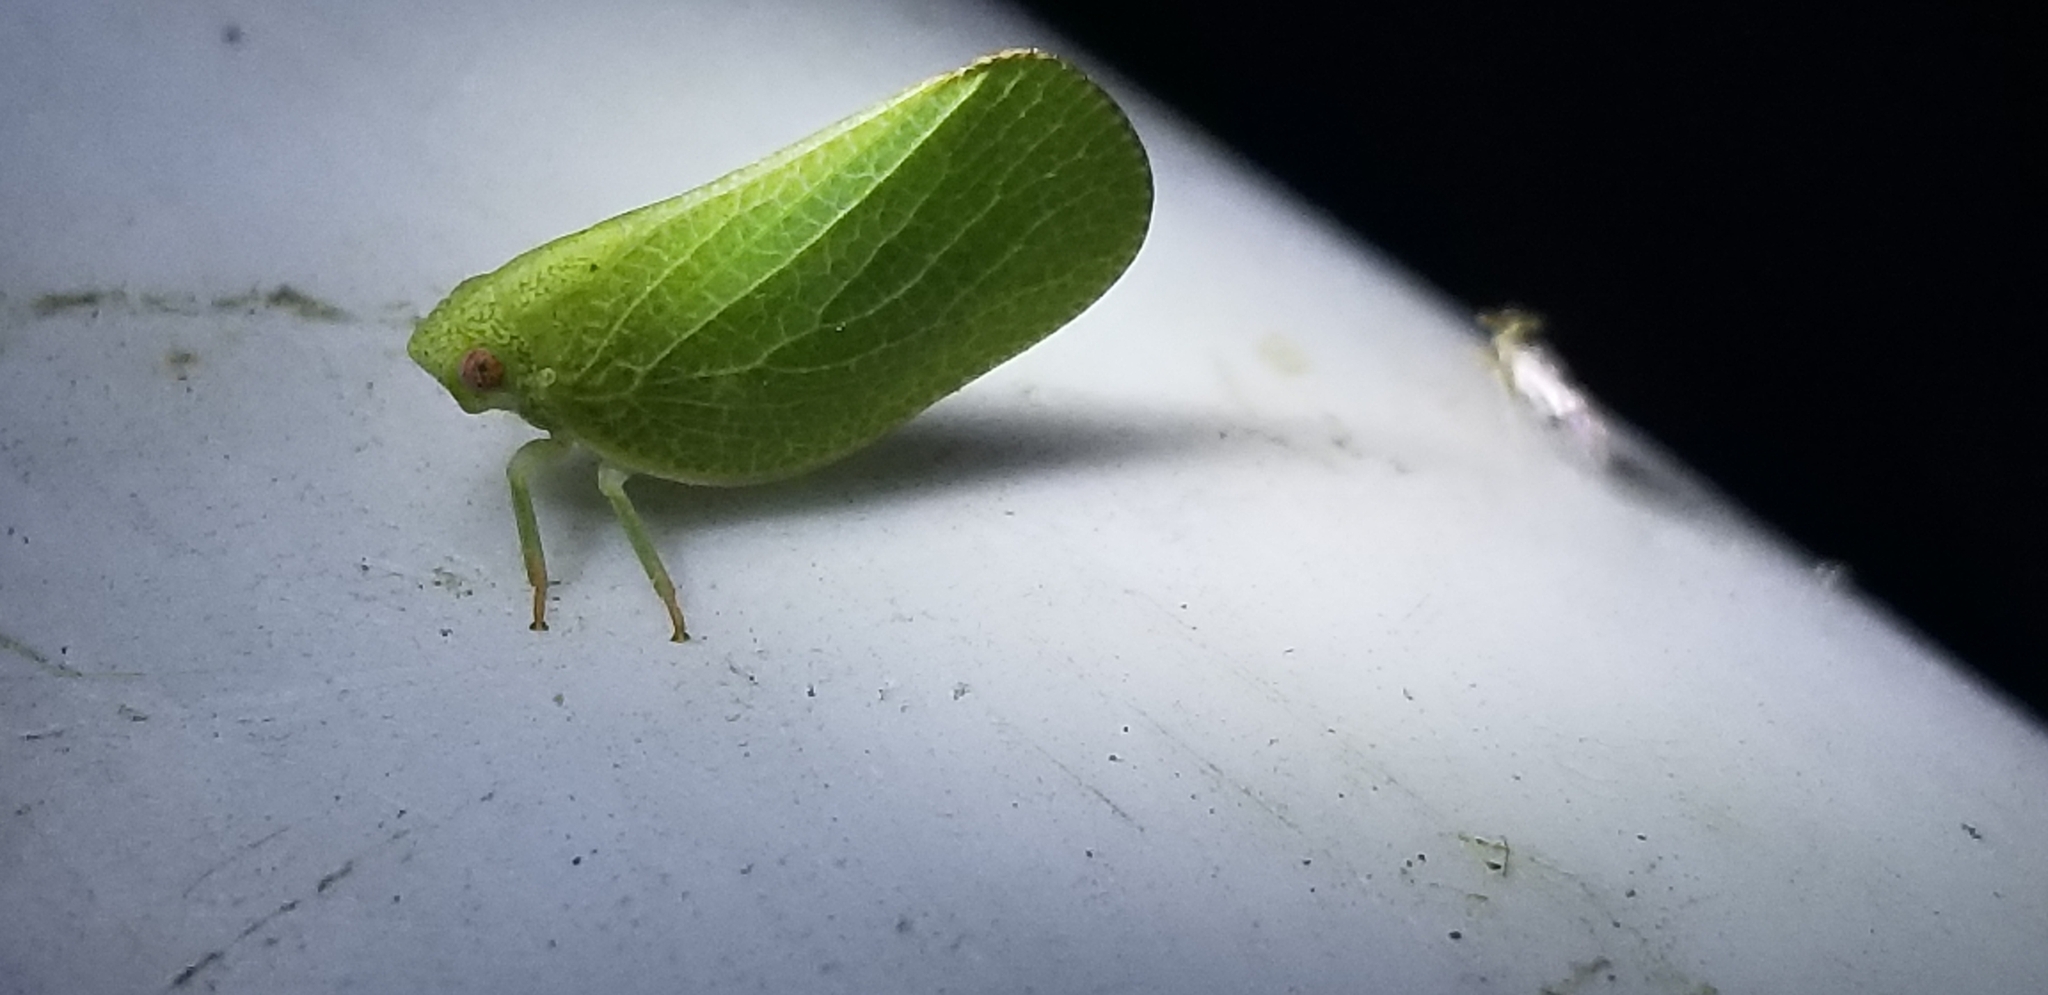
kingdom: Animalia
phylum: Arthropoda
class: Insecta
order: Hemiptera
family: Acanaloniidae
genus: Acanalonia
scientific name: Acanalonia conica
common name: Green cone-headed planthopper
